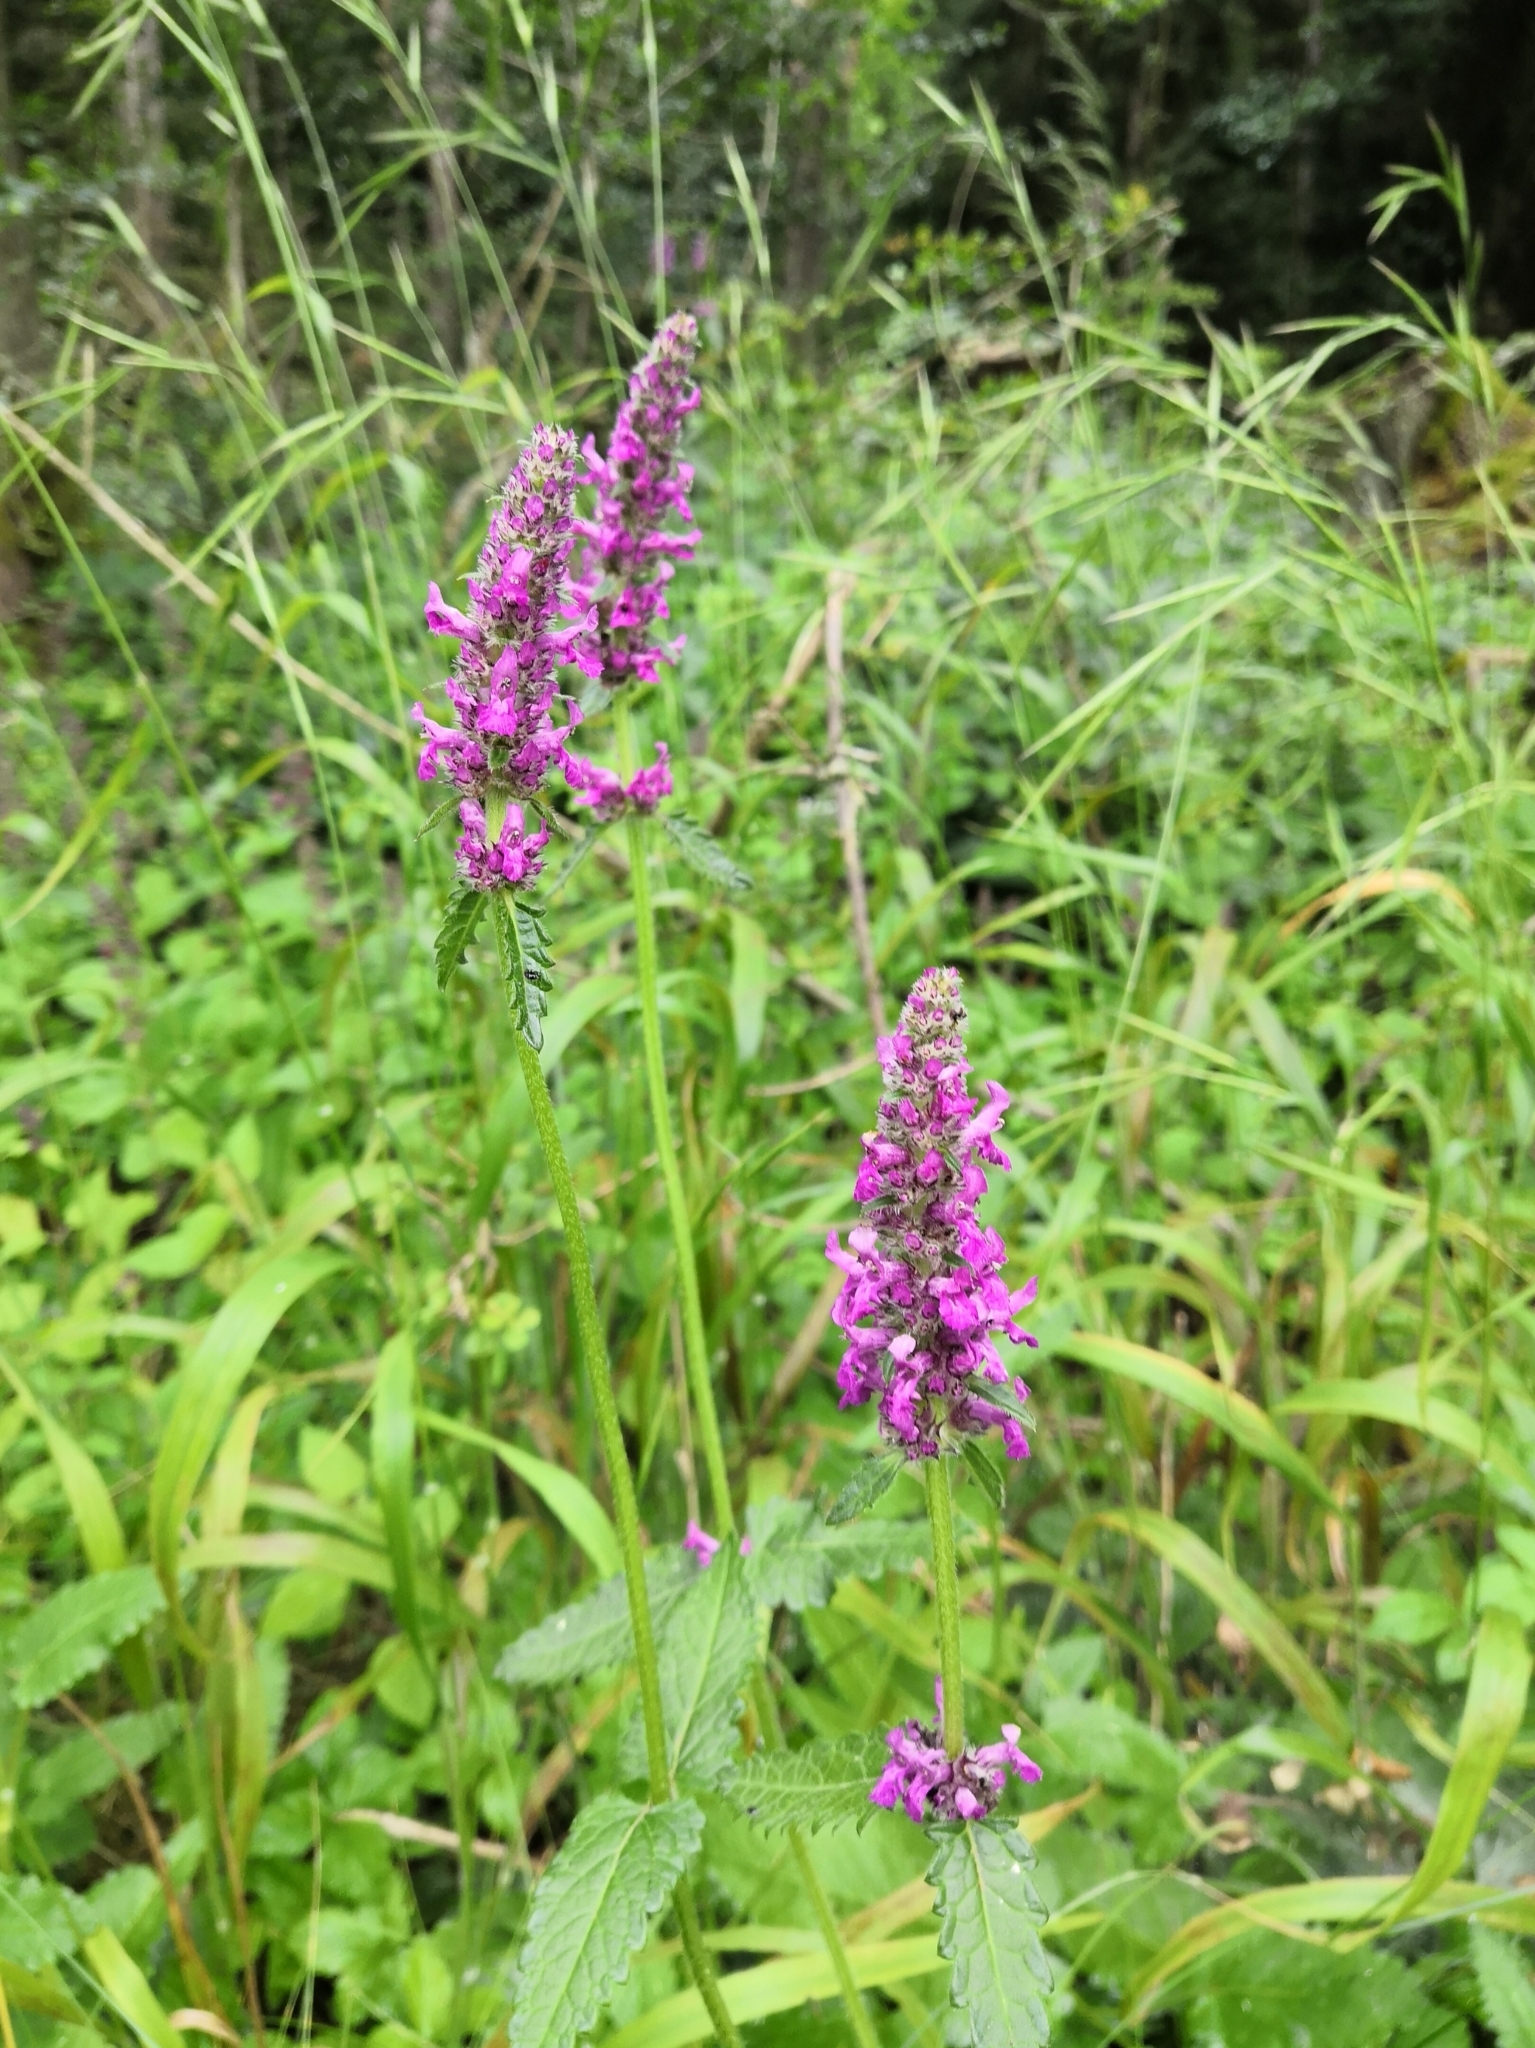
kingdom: Plantae
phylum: Tracheophyta
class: Magnoliopsida
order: Lamiales
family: Lamiaceae
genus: Betonica
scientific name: Betonica officinalis
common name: Bishop's-wort
